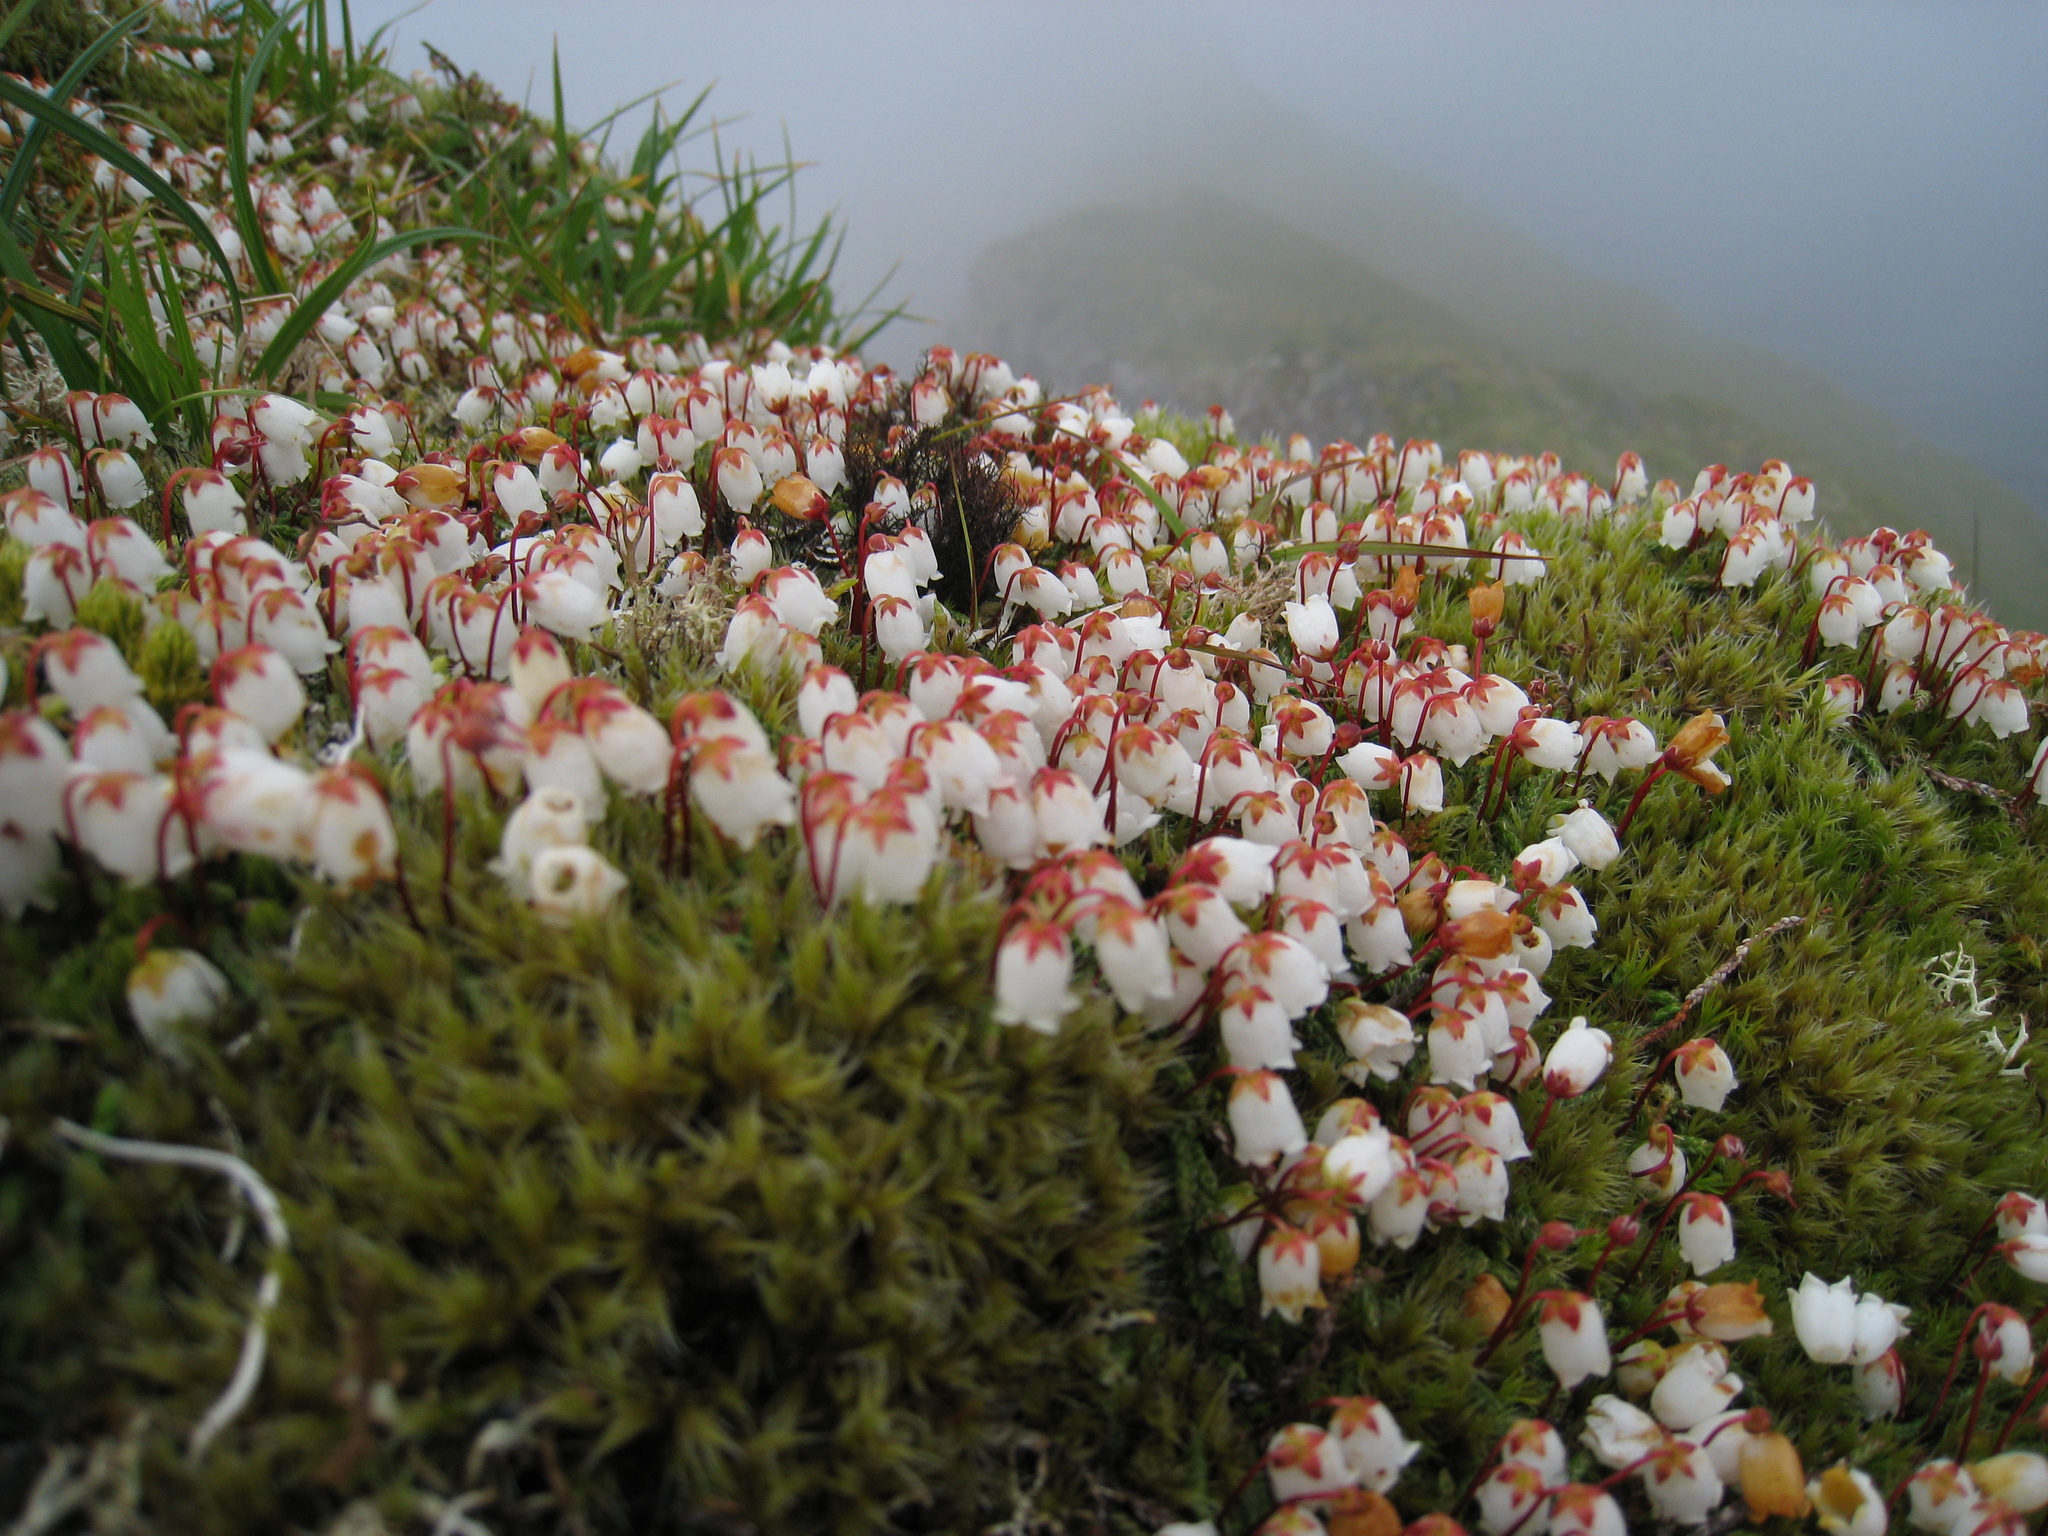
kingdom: Plantae
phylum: Tracheophyta
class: Magnoliopsida
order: Ericales
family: Ericaceae
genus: Cassiope
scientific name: Cassiope tetragona
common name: Arctic bell heather
